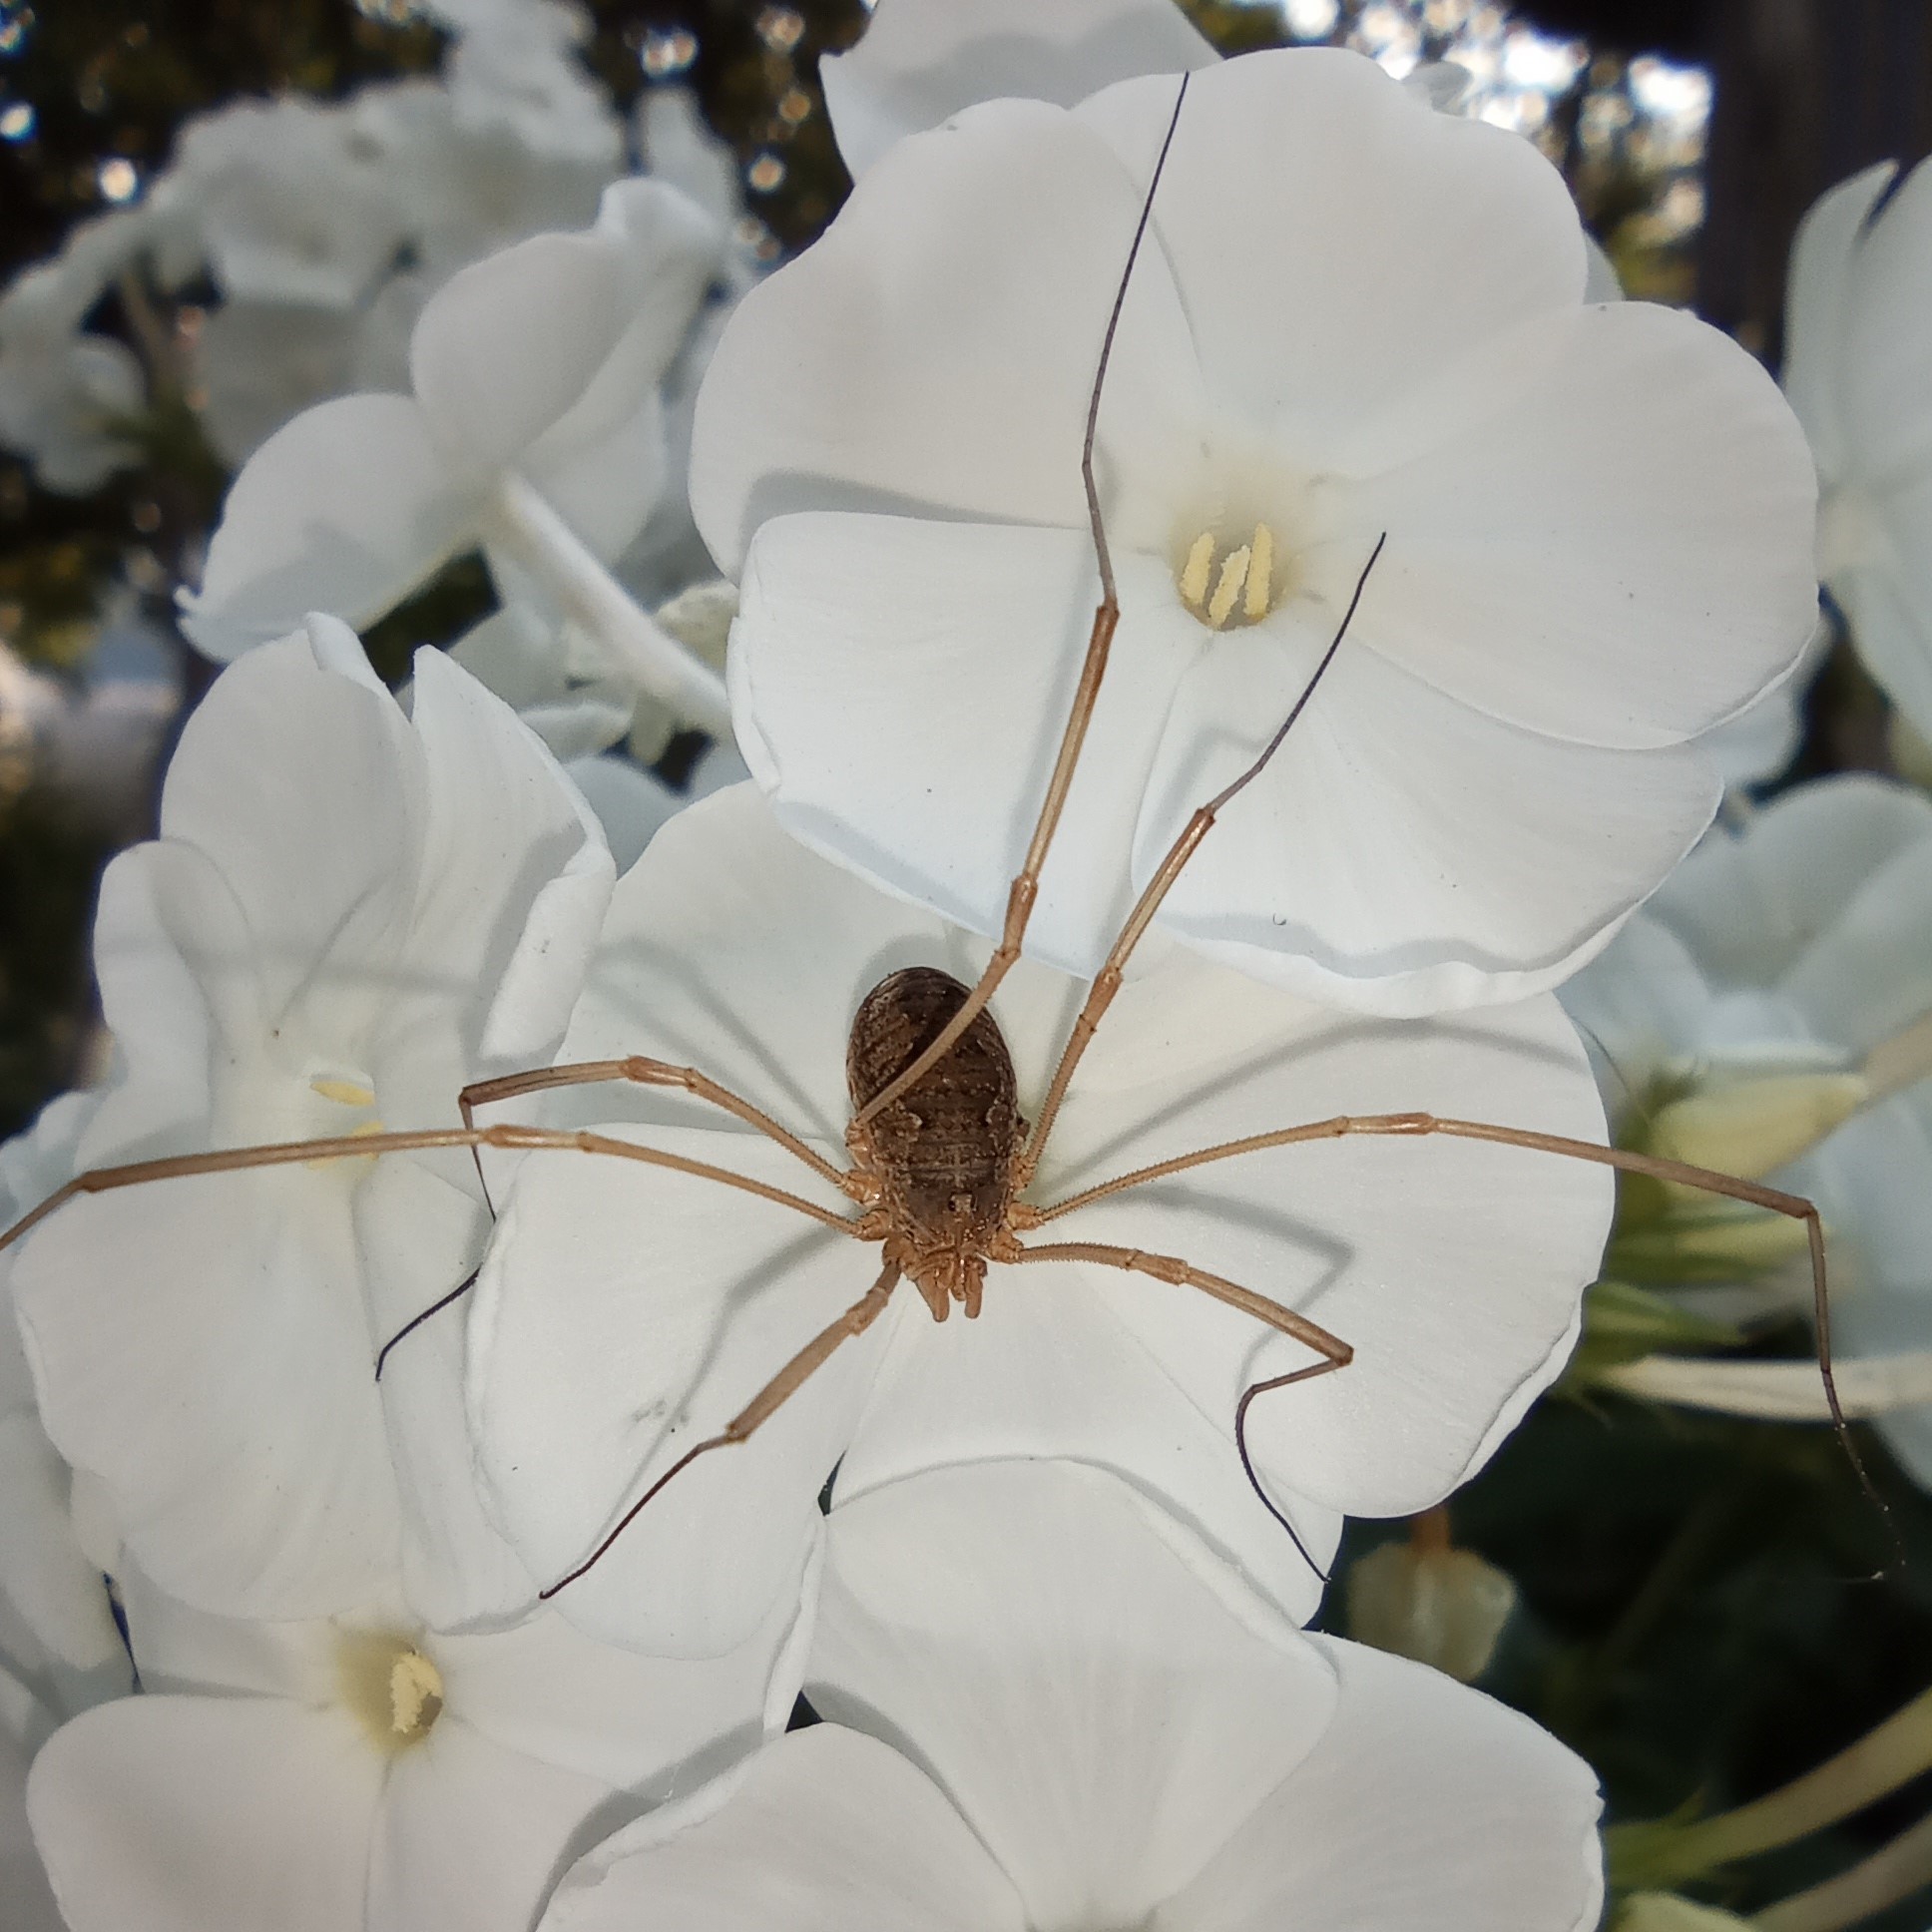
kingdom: Animalia
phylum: Arthropoda
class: Arachnida
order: Opiliones
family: Phalangiidae
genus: Phalangium
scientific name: Phalangium opilio
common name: Daddy longleg
